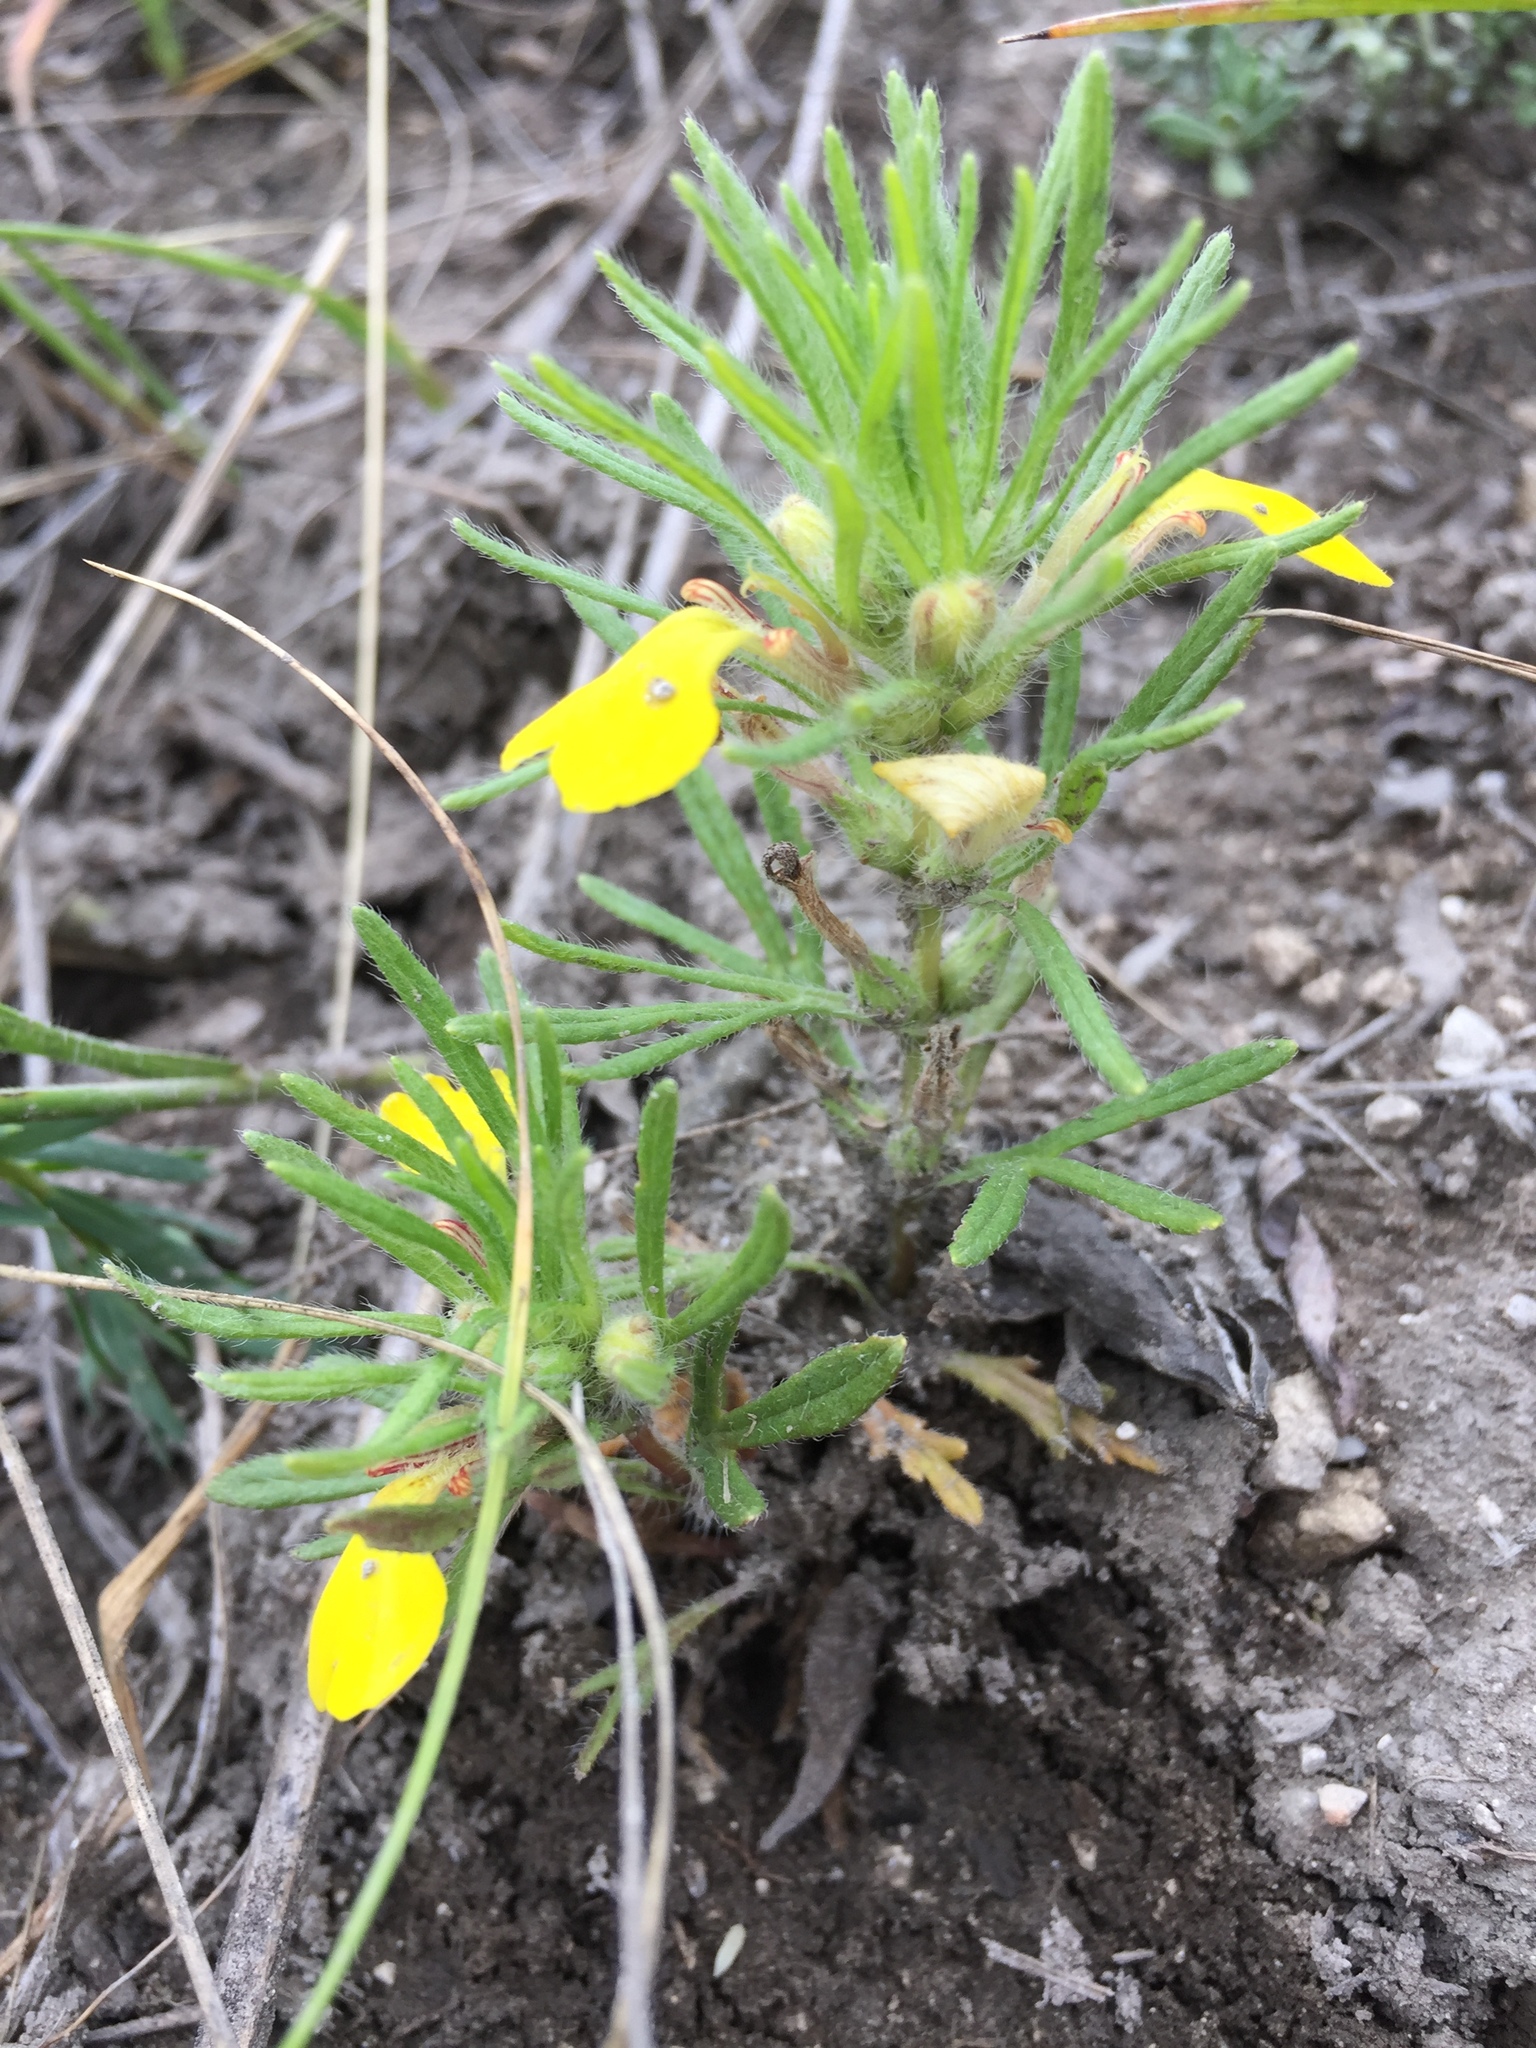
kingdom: Plantae
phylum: Tracheophyta
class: Magnoliopsida
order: Lamiales
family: Lamiaceae
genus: Ajuga
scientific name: Ajuga chamaepitys
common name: Ground-pine
